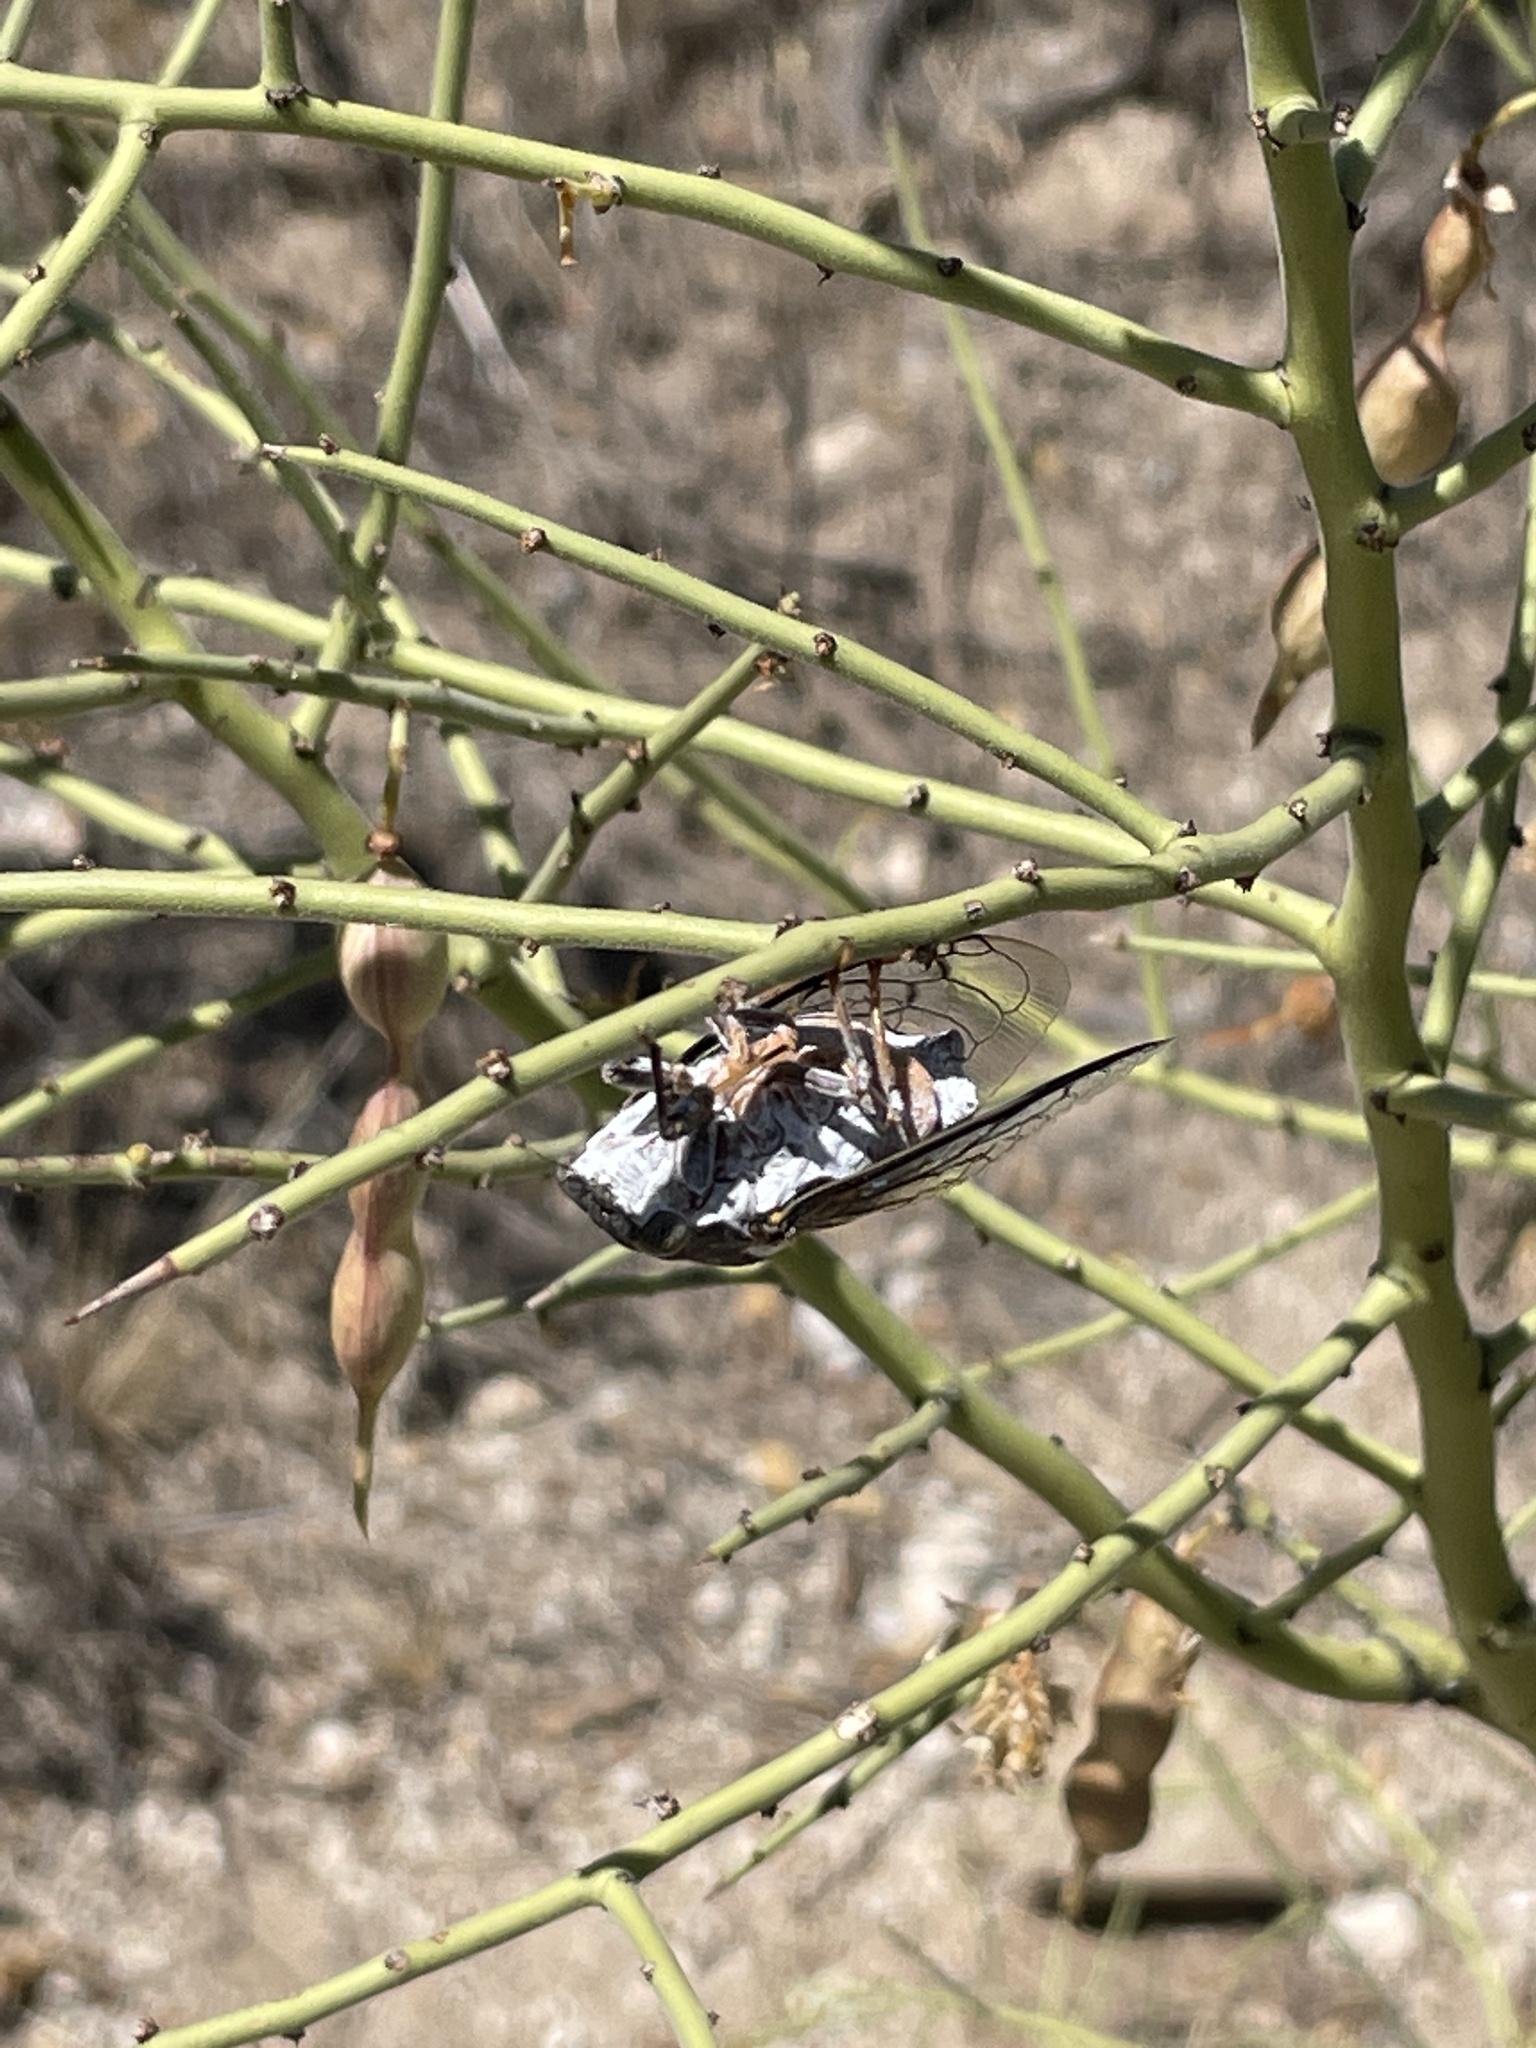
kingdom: Animalia
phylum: Arthropoda
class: Insecta
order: Hemiptera
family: Cicadidae
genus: Cacama
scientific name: Cacama moorei
